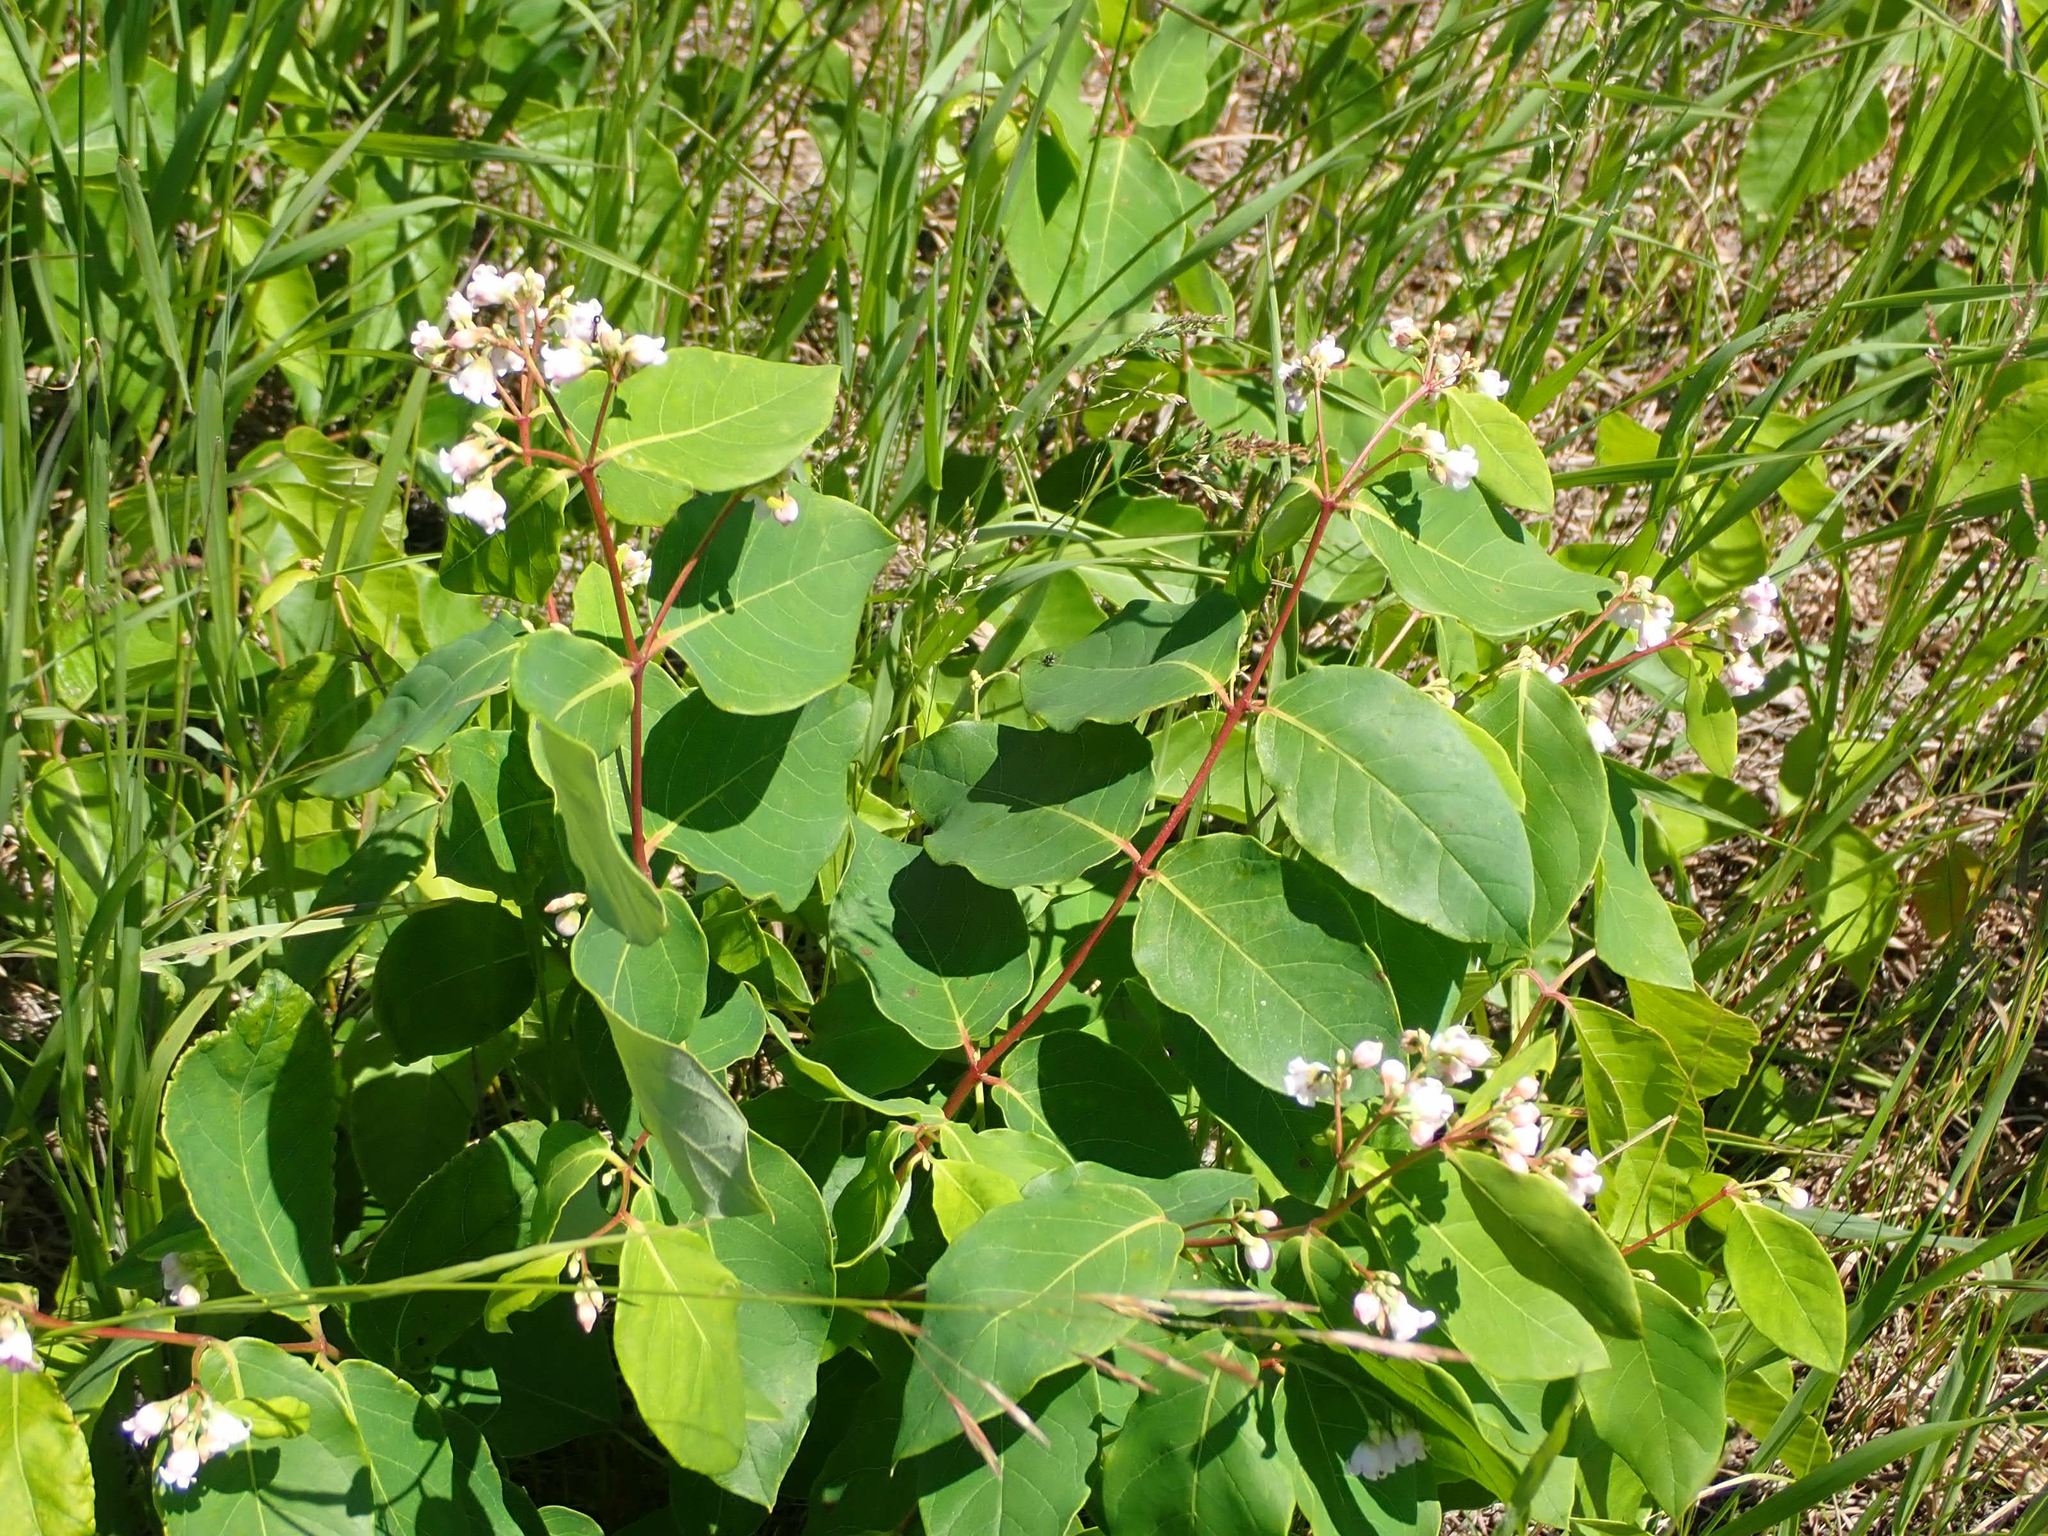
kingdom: Plantae
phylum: Tracheophyta
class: Magnoliopsida
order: Gentianales
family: Apocynaceae
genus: Apocynum
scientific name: Apocynum androsaemifolium
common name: Spreading dogbane
